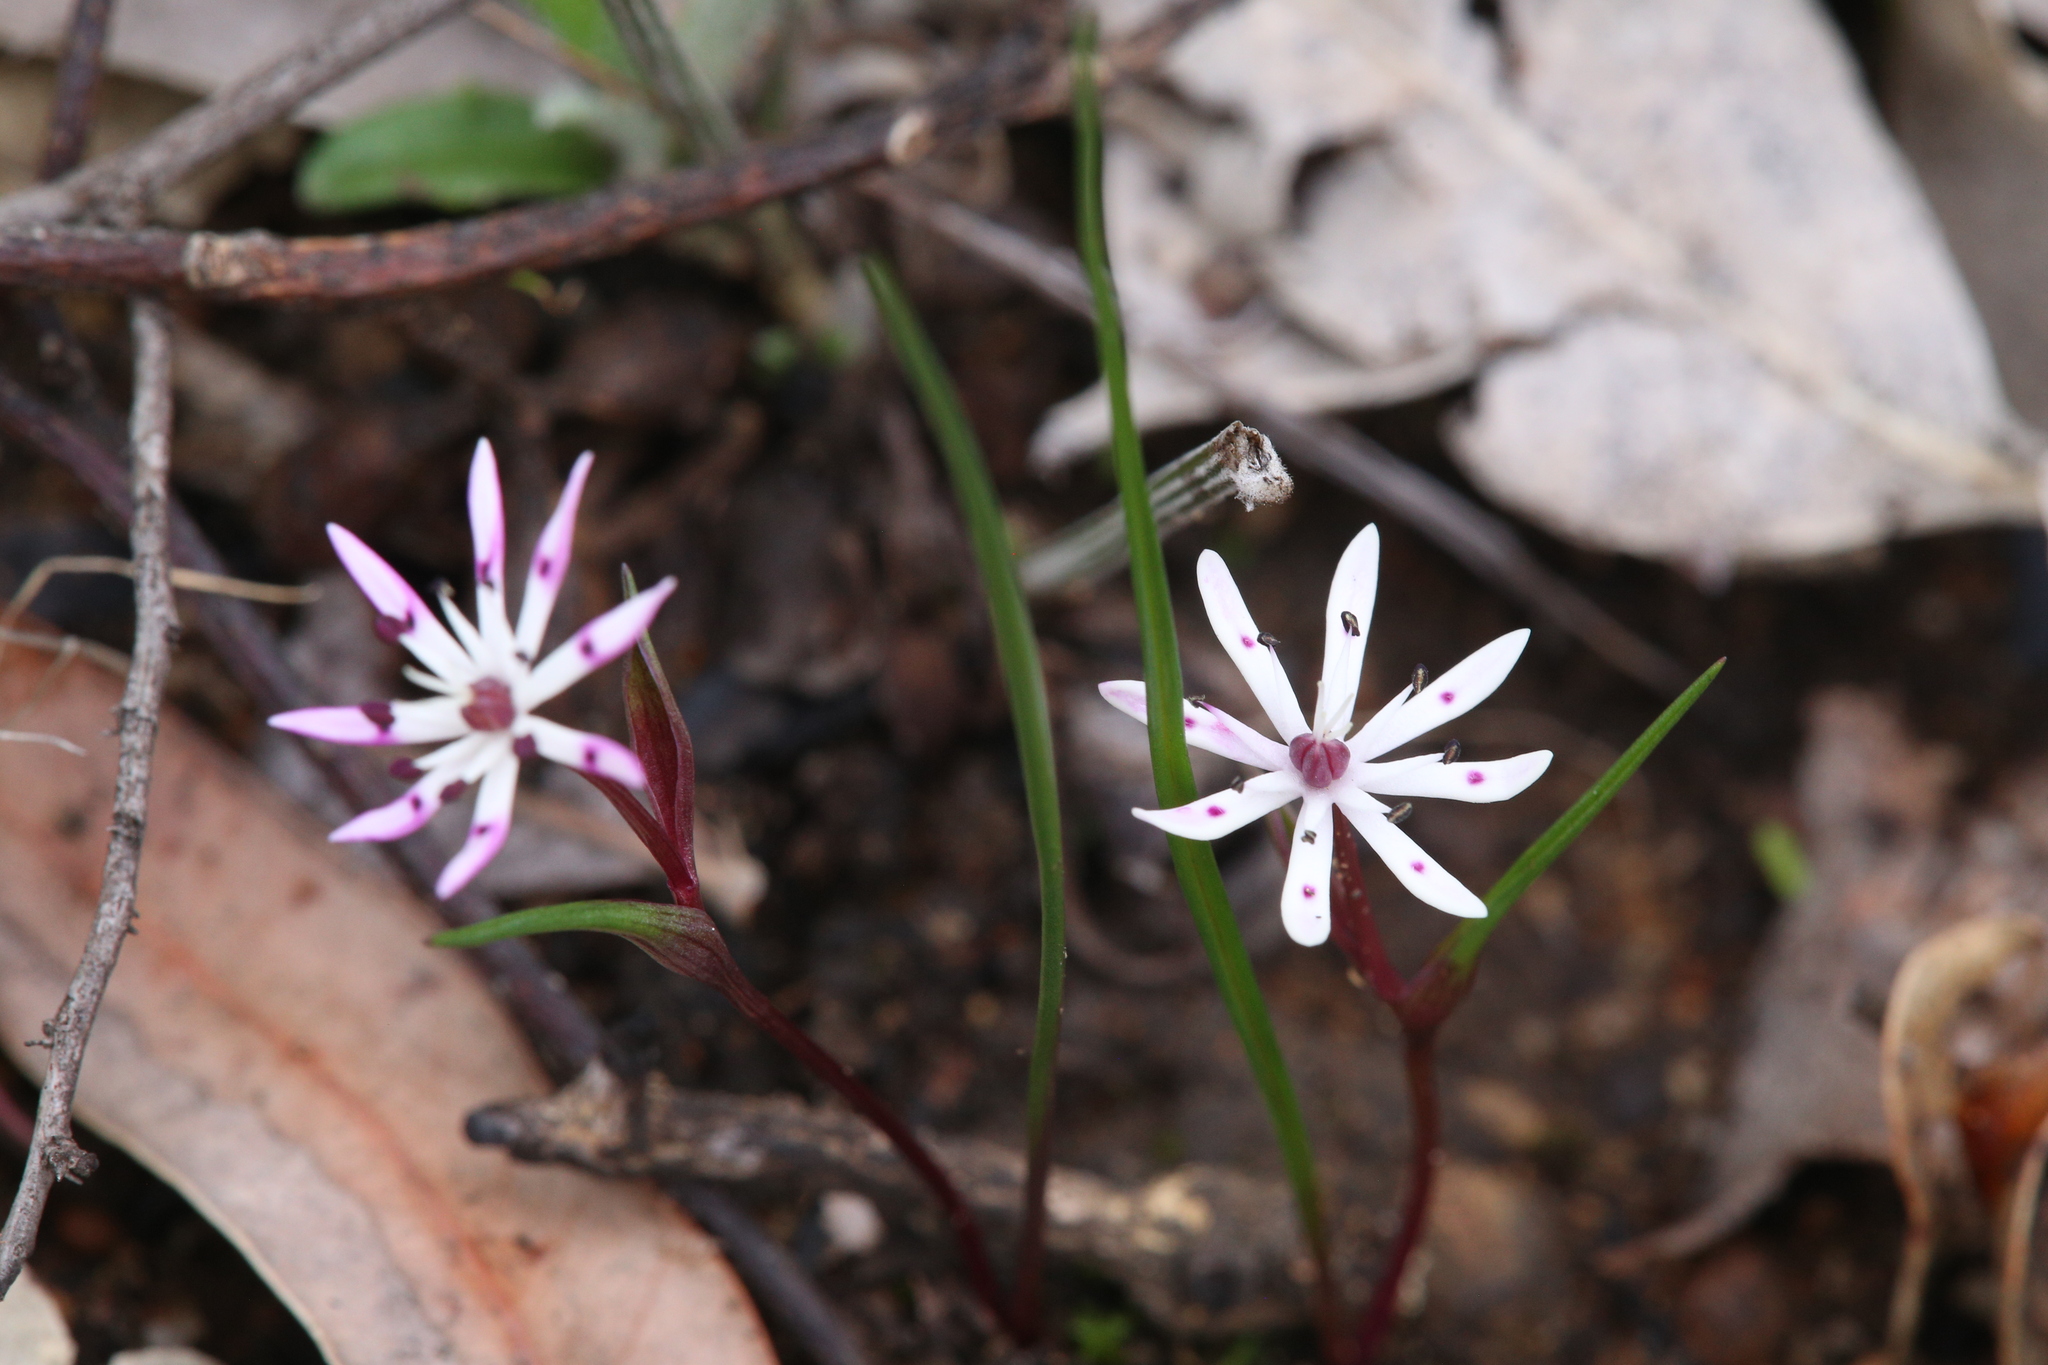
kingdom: Plantae
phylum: Tracheophyta
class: Liliopsida
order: Liliales
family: Colchicaceae
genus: Wurmbea
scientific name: Wurmbea tenella
